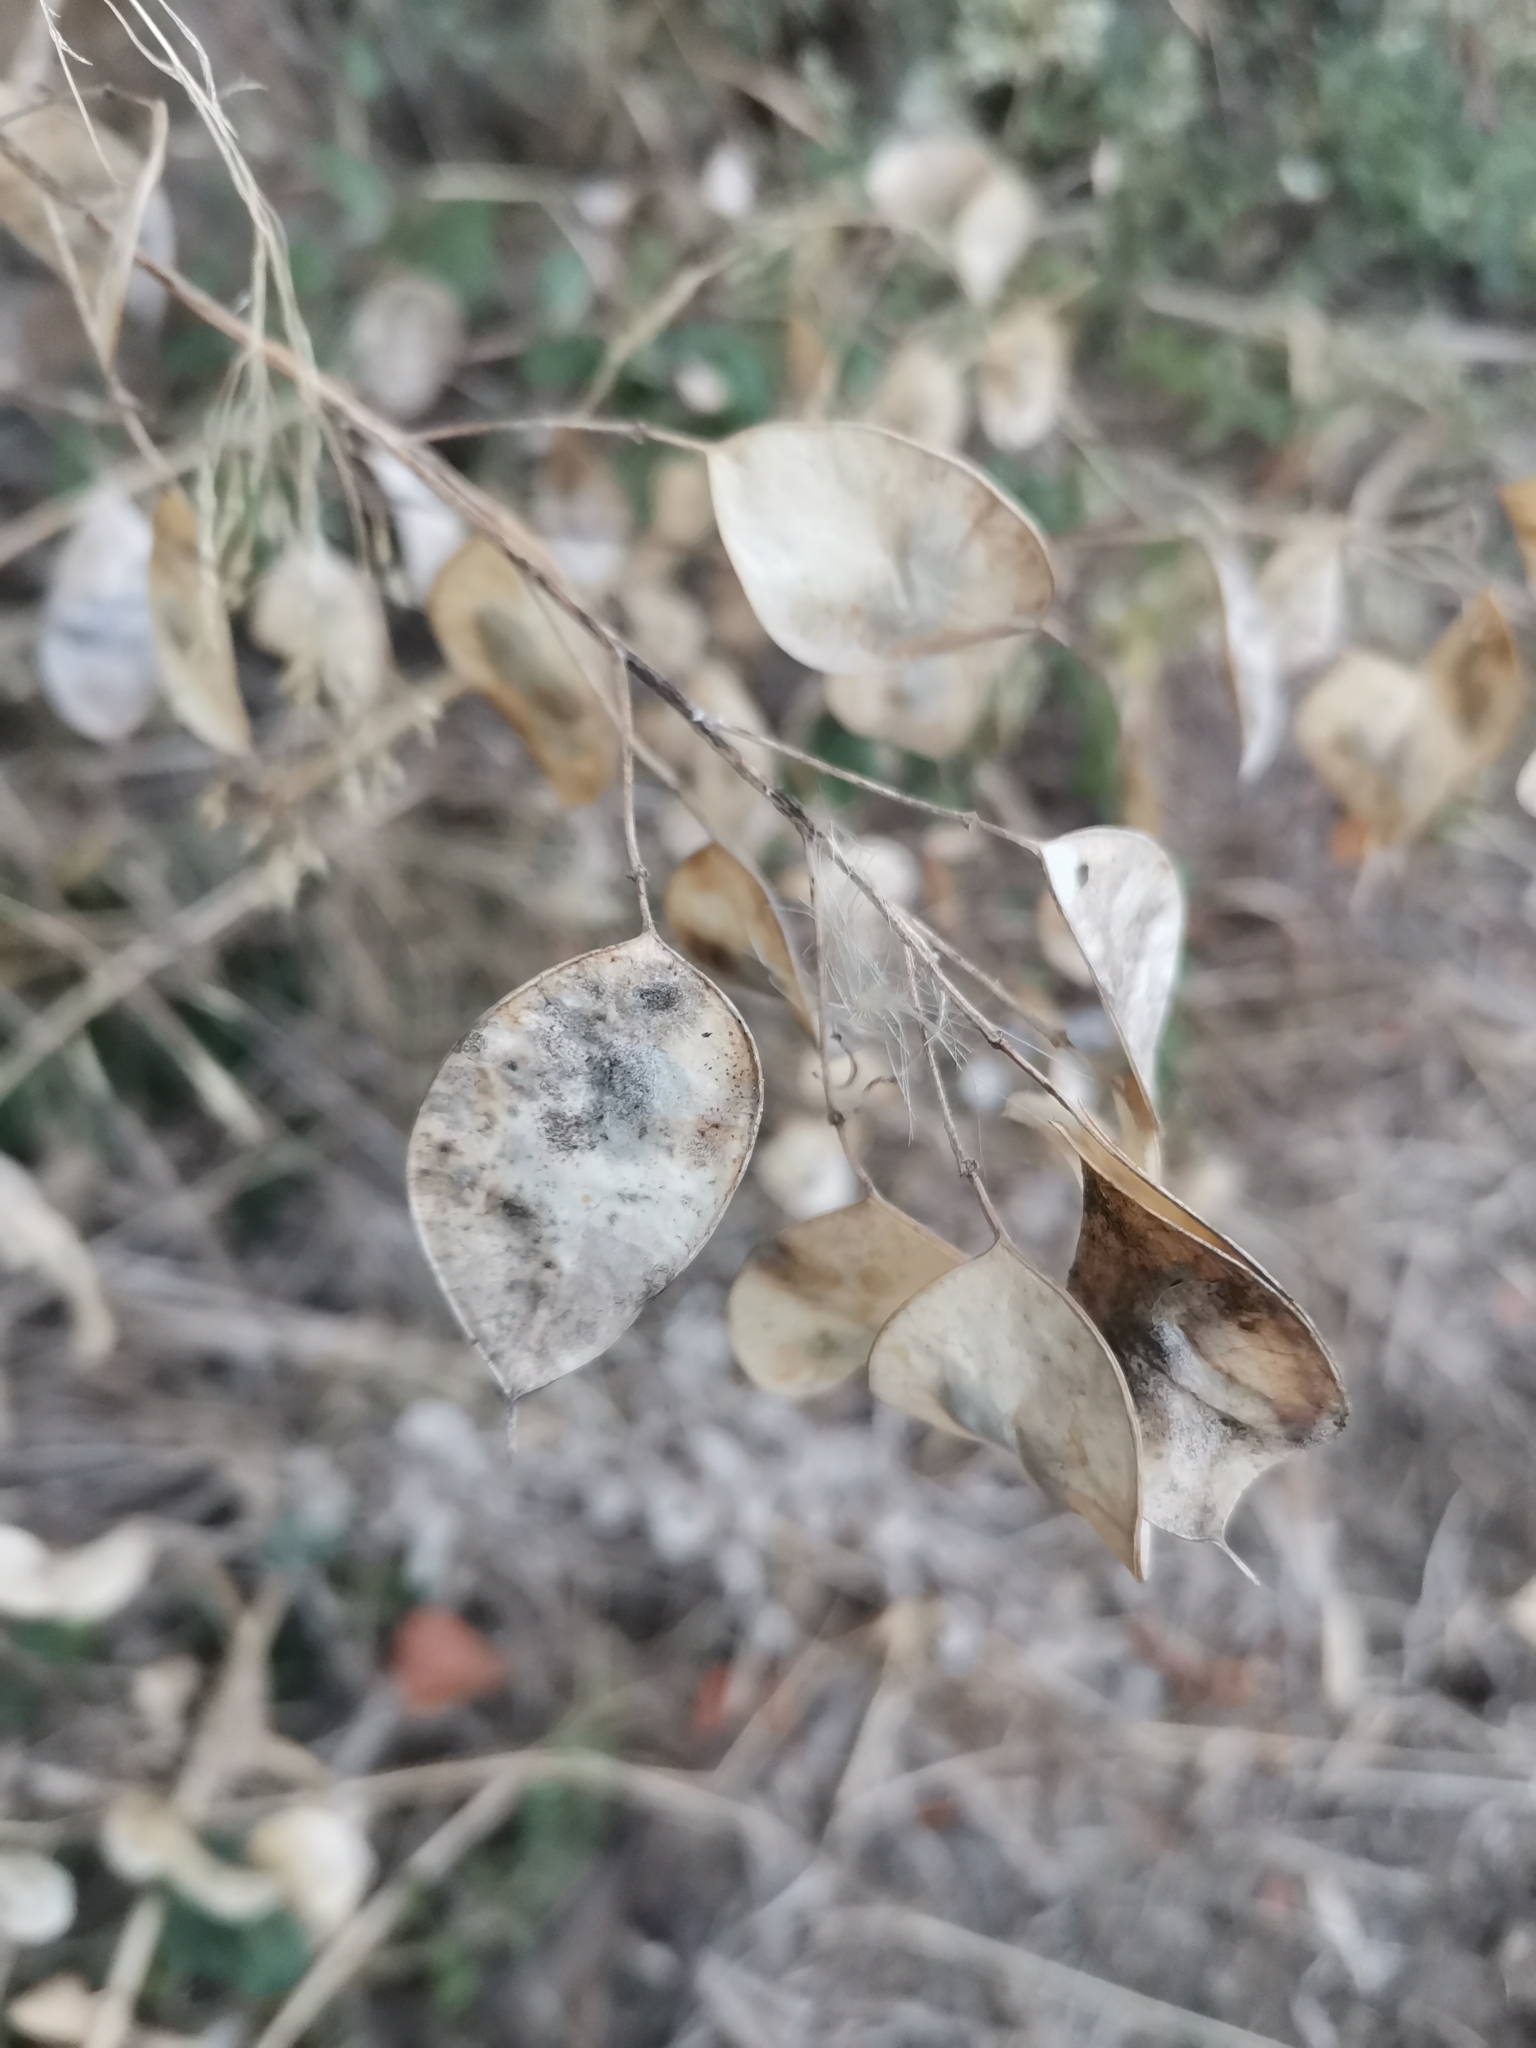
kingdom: Plantae
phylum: Tracheophyta
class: Magnoliopsida
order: Brassicales
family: Brassicaceae
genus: Lunaria
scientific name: Lunaria annua
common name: Honesty
